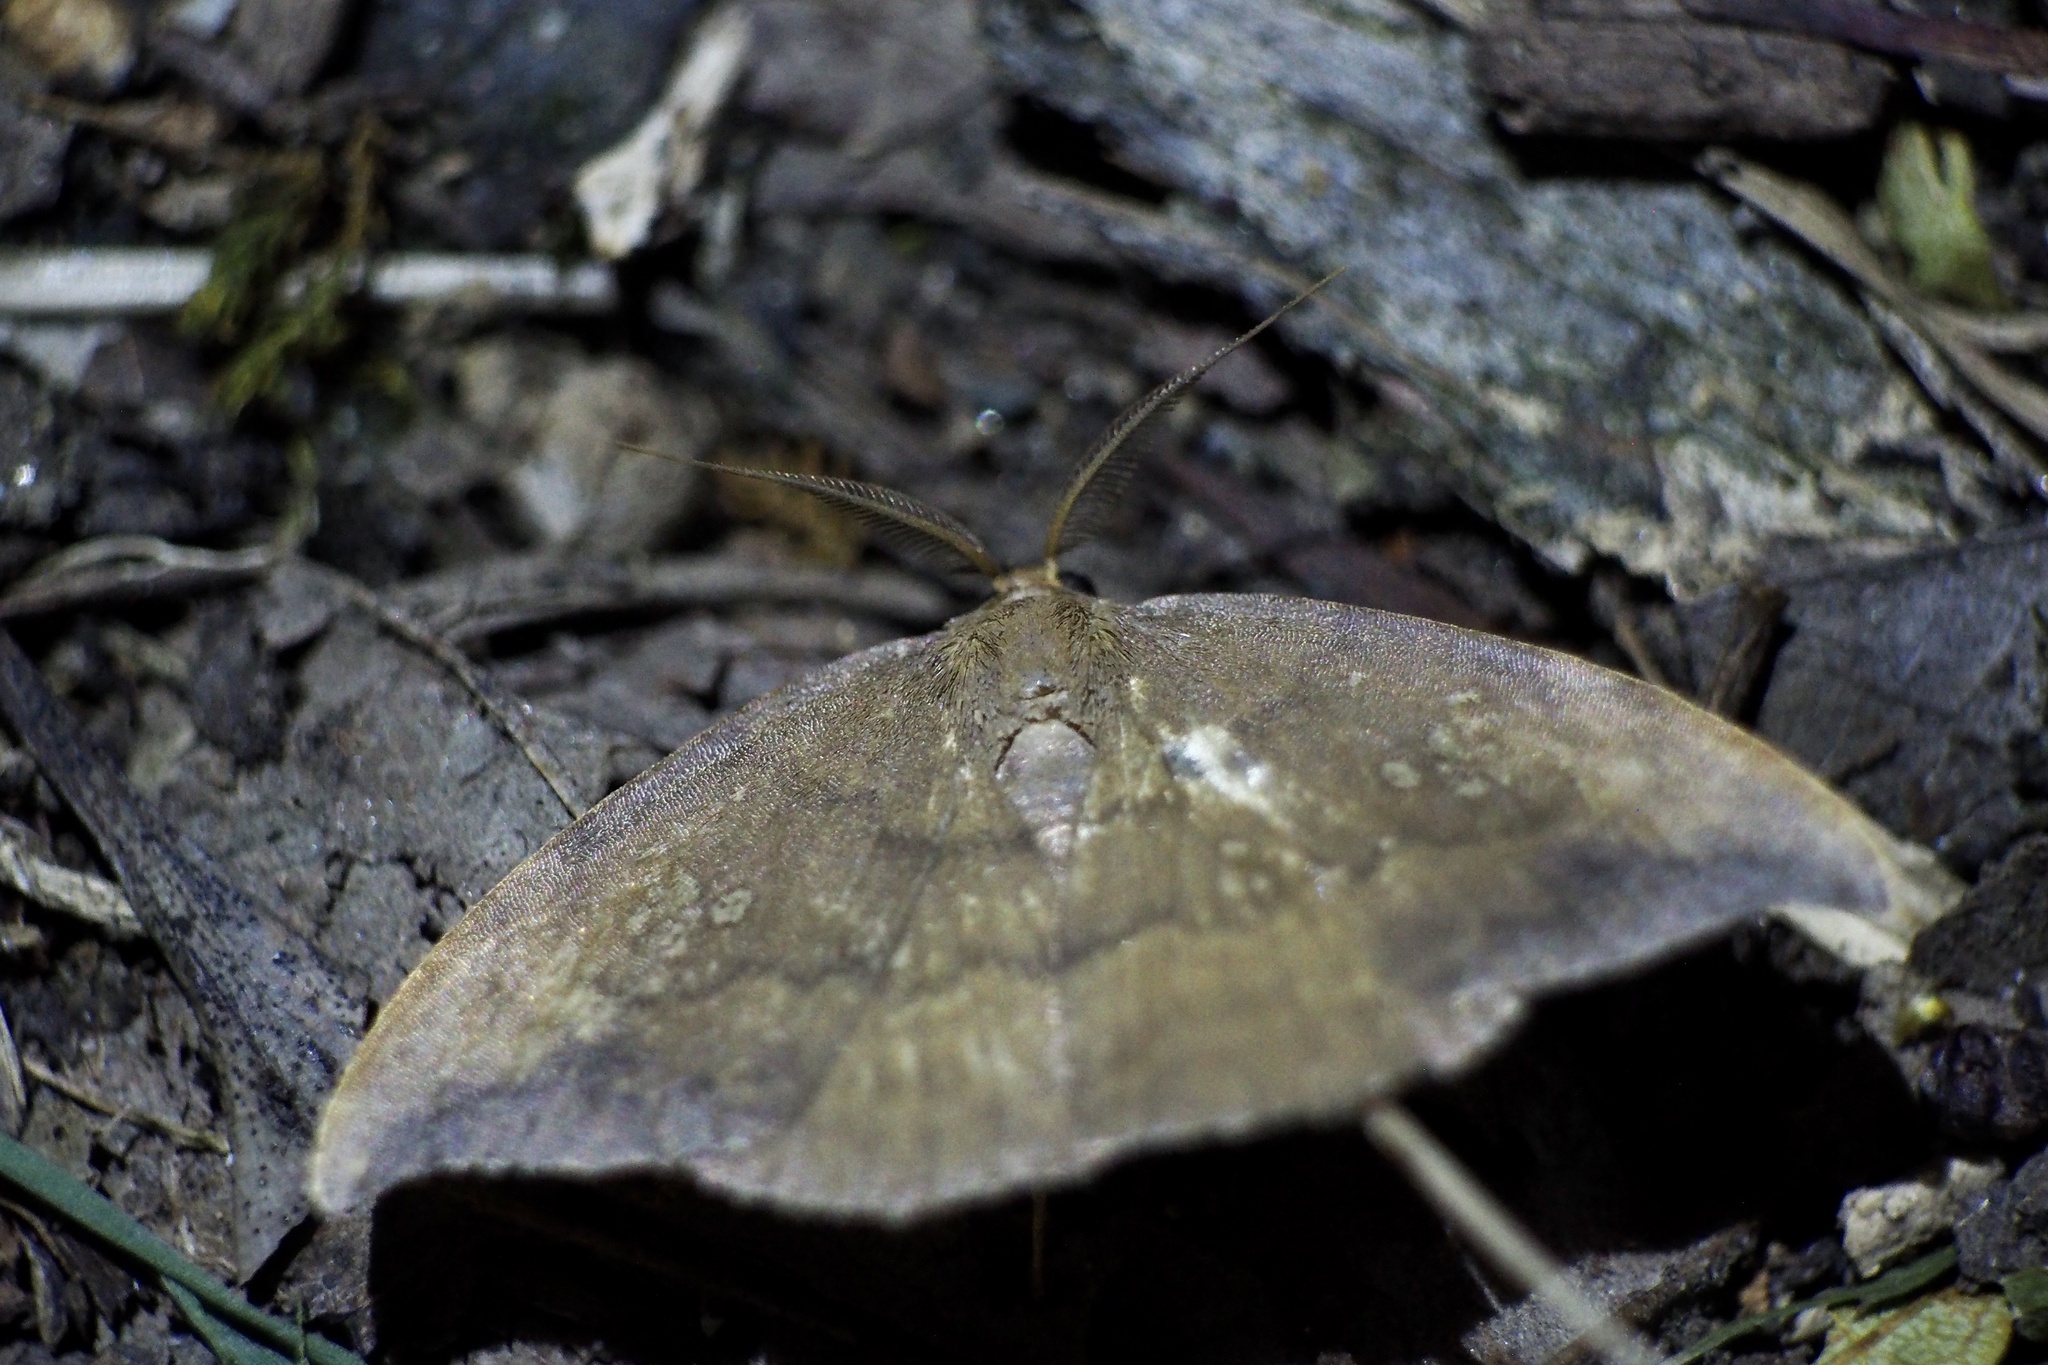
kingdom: Animalia
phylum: Arthropoda
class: Insecta
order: Lepidoptera
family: Drepanidae
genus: Agnidra
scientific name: Agnidra scabiosa
